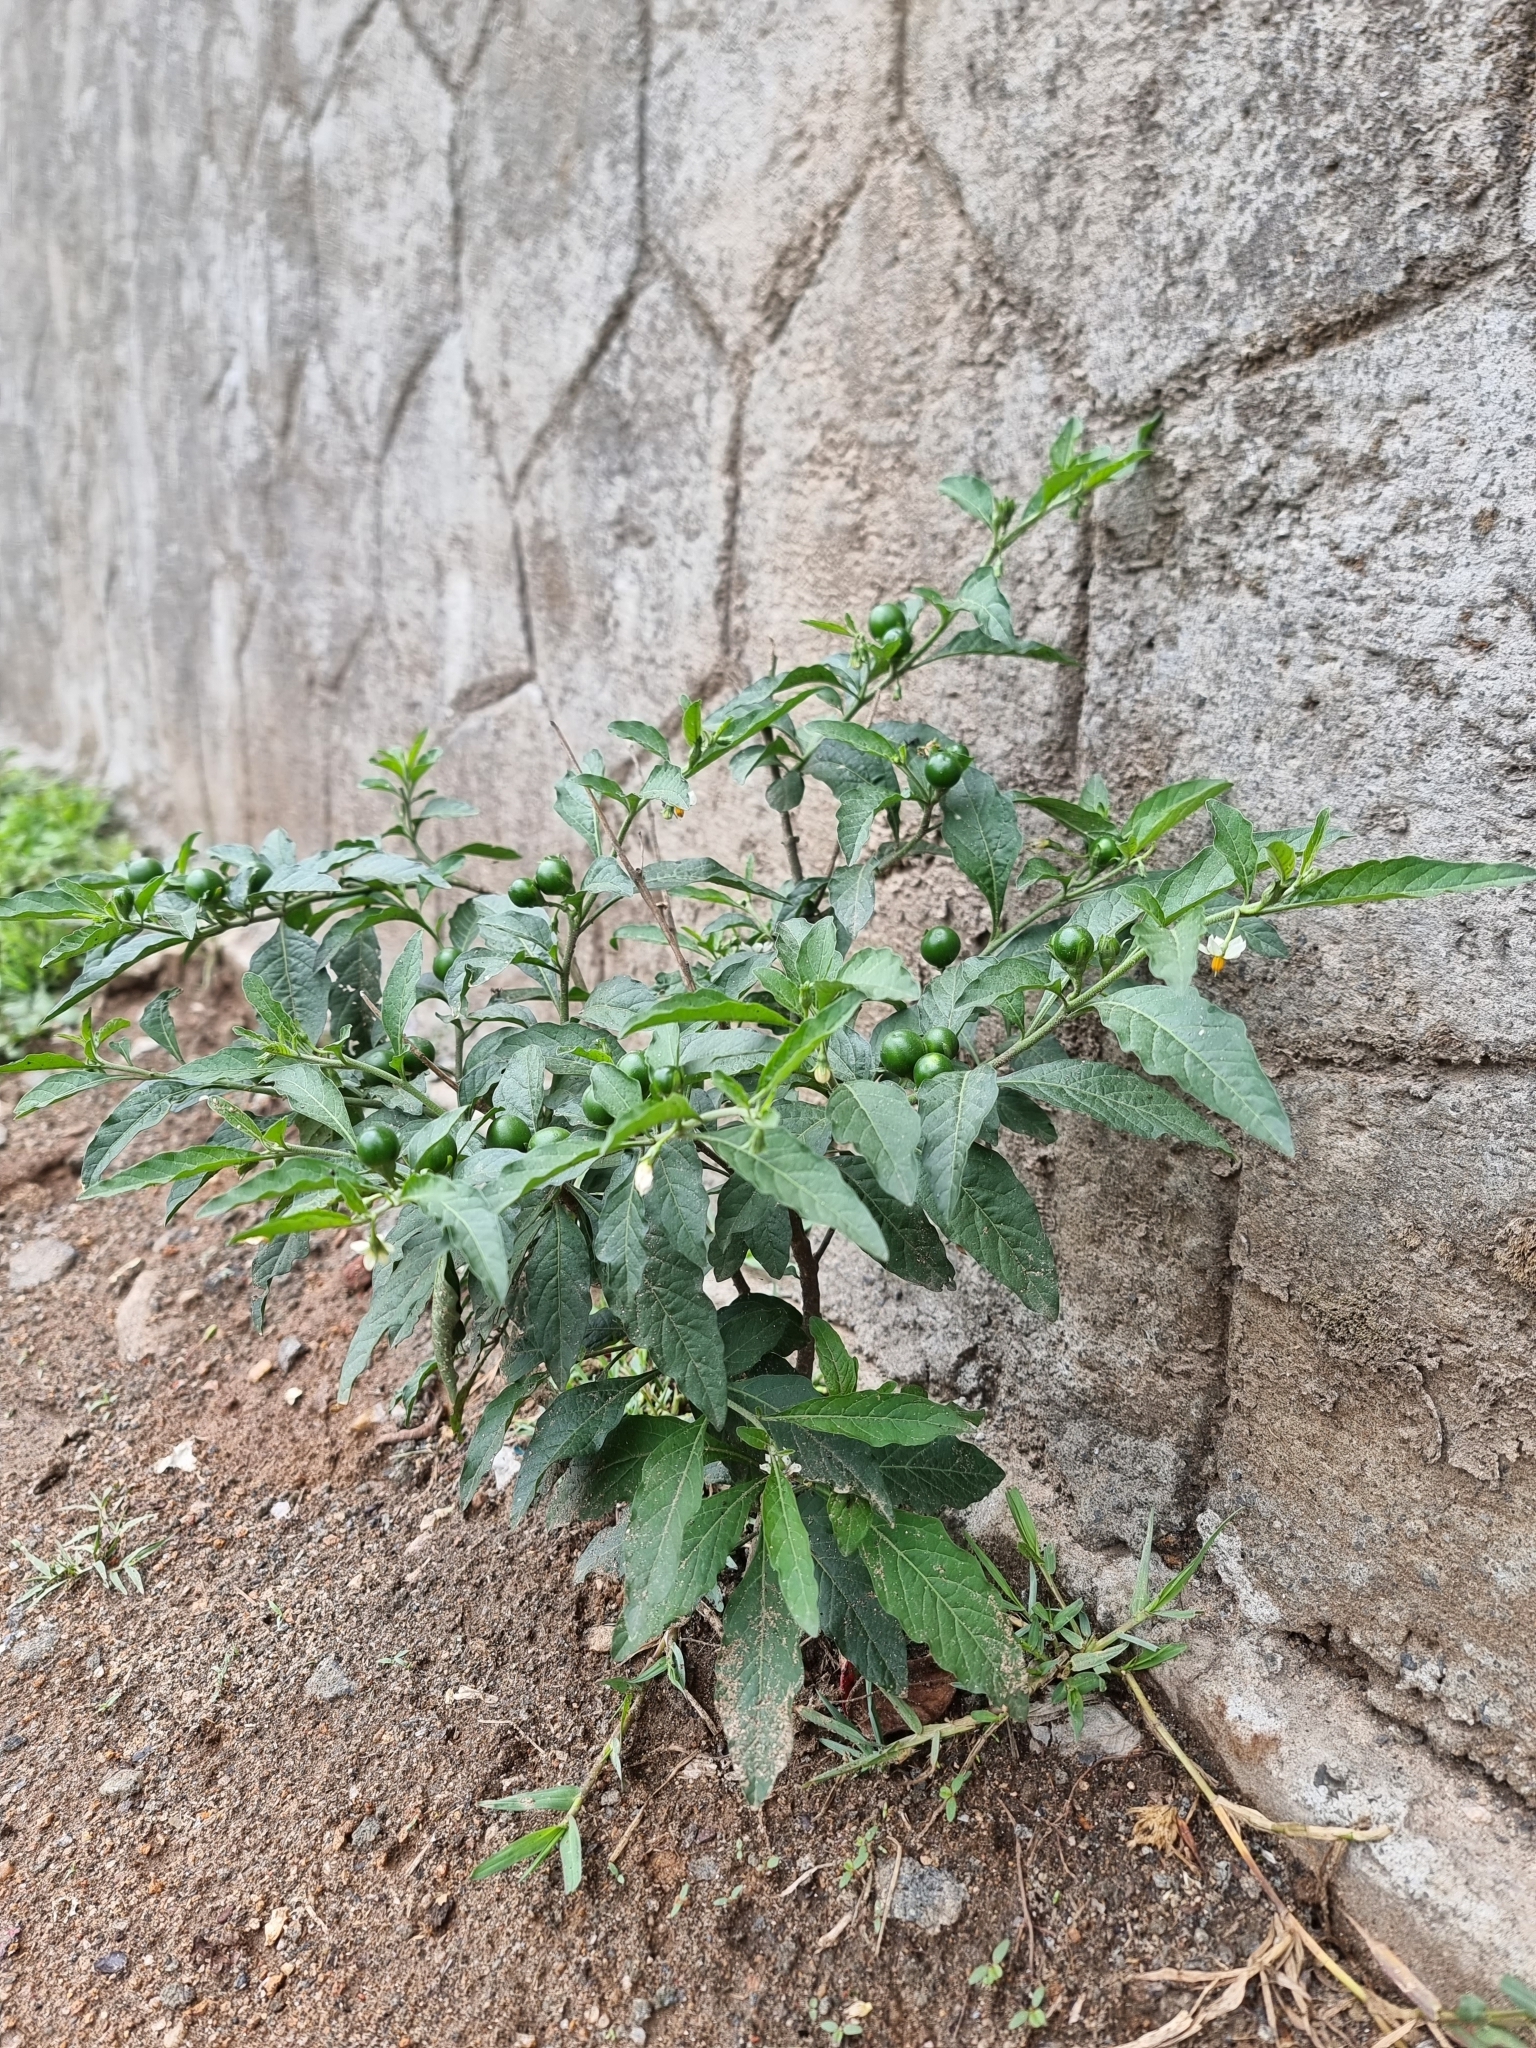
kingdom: Plantae
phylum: Tracheophyta
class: Magnoliopsida
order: Solanales
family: Solanaceae
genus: Solanum
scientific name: Solanum pseudocapsicum
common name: Jerusalem cherry
